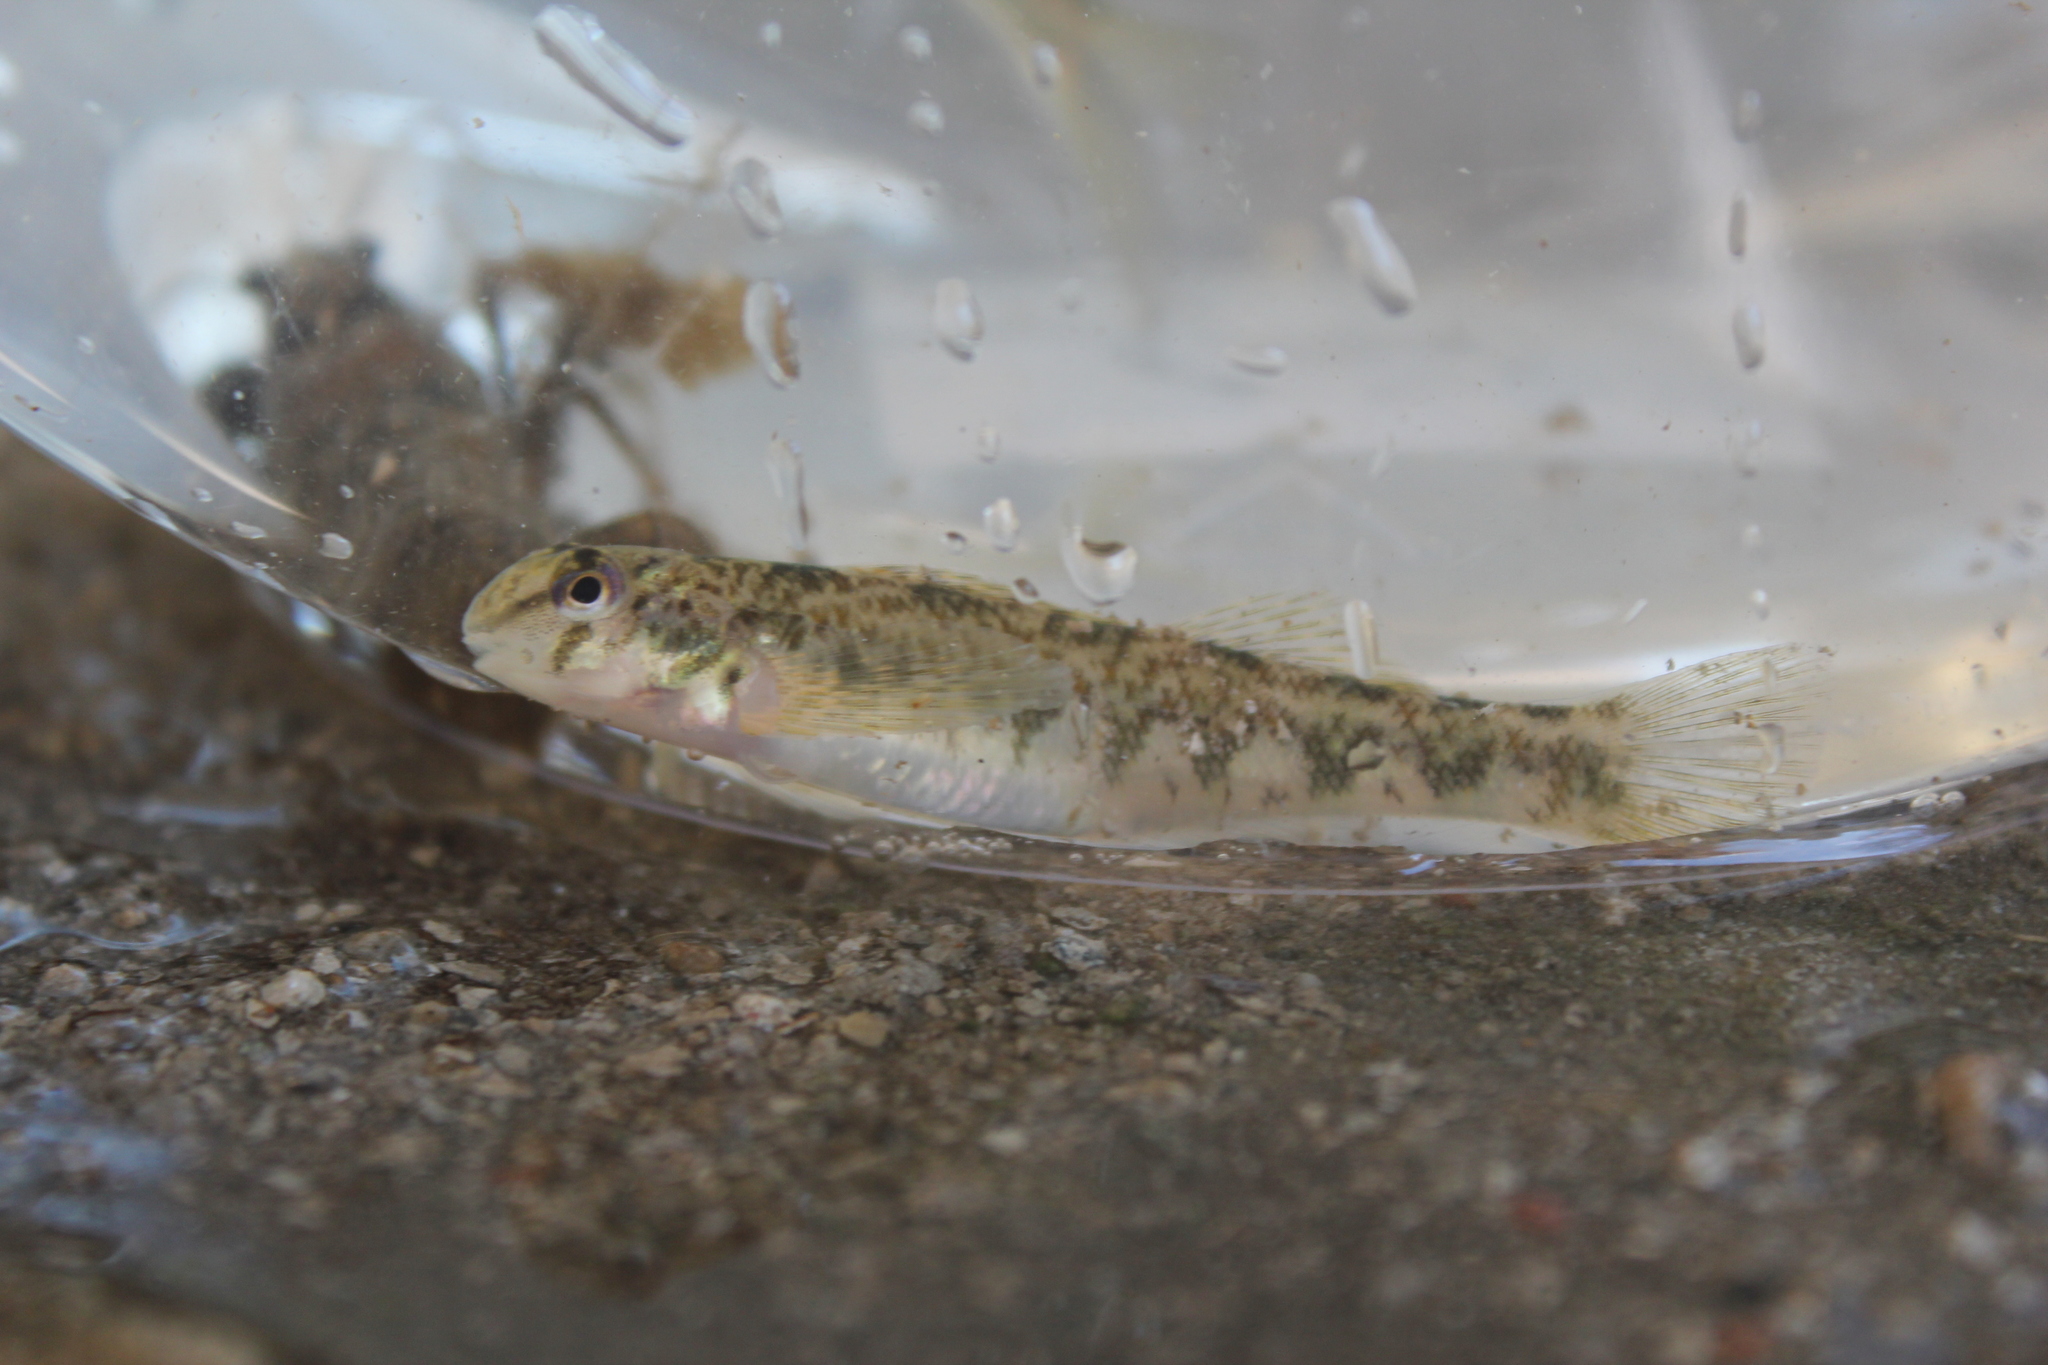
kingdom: Animalia
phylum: Chordata
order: Perciformes
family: Percidae
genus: Etheostoma
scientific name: Etheostoma blennioides
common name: Greenside darter
